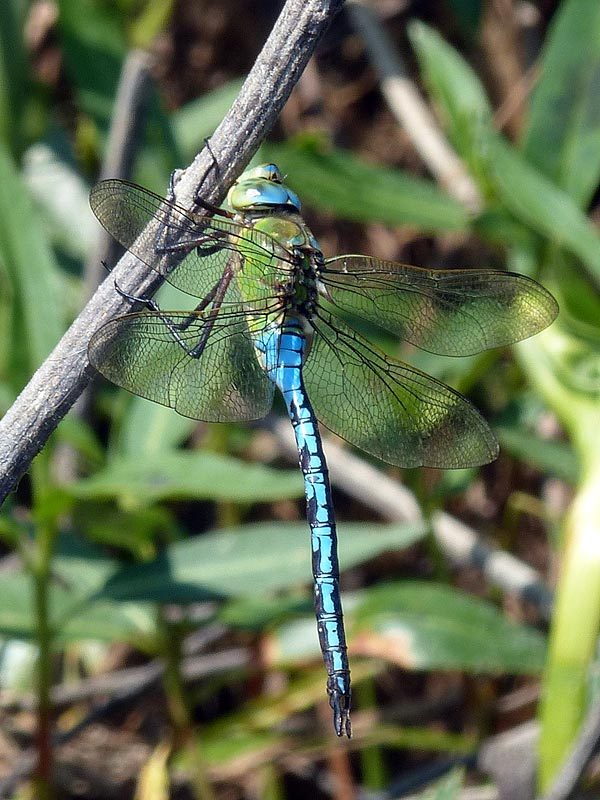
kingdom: Animalia
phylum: Arthropoda
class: Insecta
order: Odonata
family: Aeshnidae
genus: Anax
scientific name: Anax imperator
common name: Emperor dragonfly
